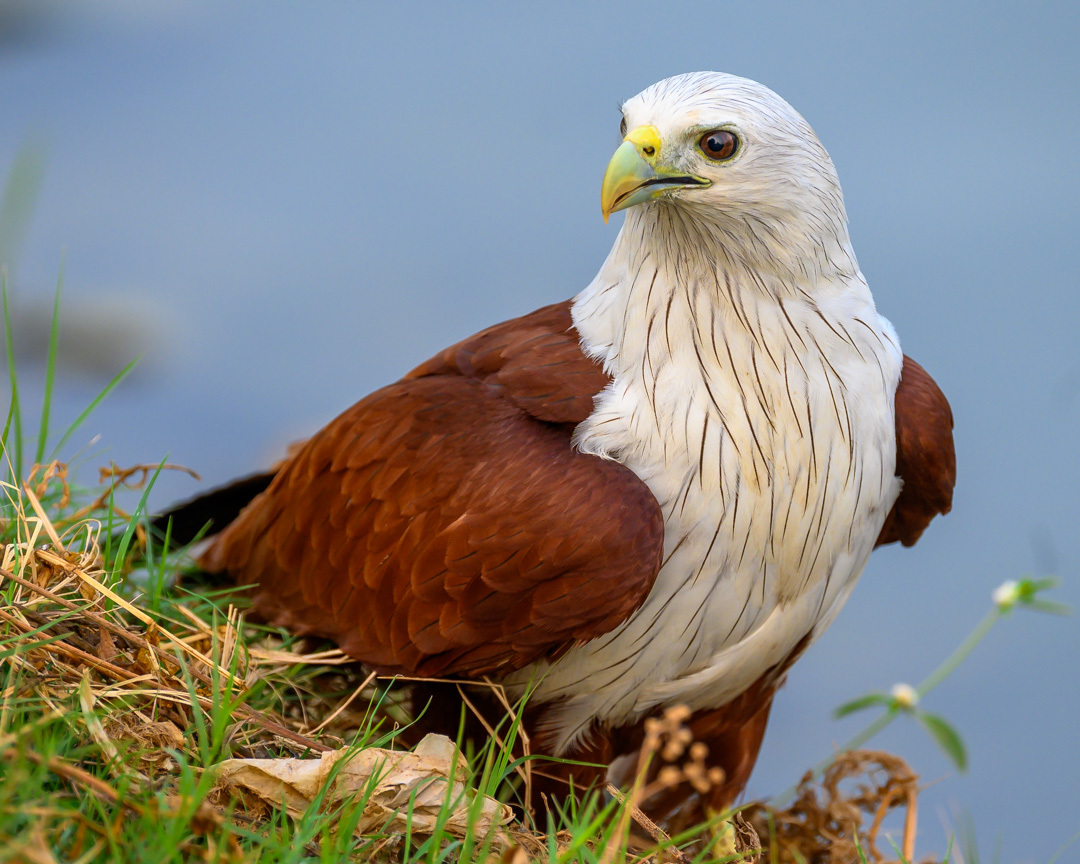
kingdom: Animalia
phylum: Chordata
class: Aves
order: Accipitriformes
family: Accipitridae
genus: Haliastur
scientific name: Haliastur indus
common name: Brahminy kite
